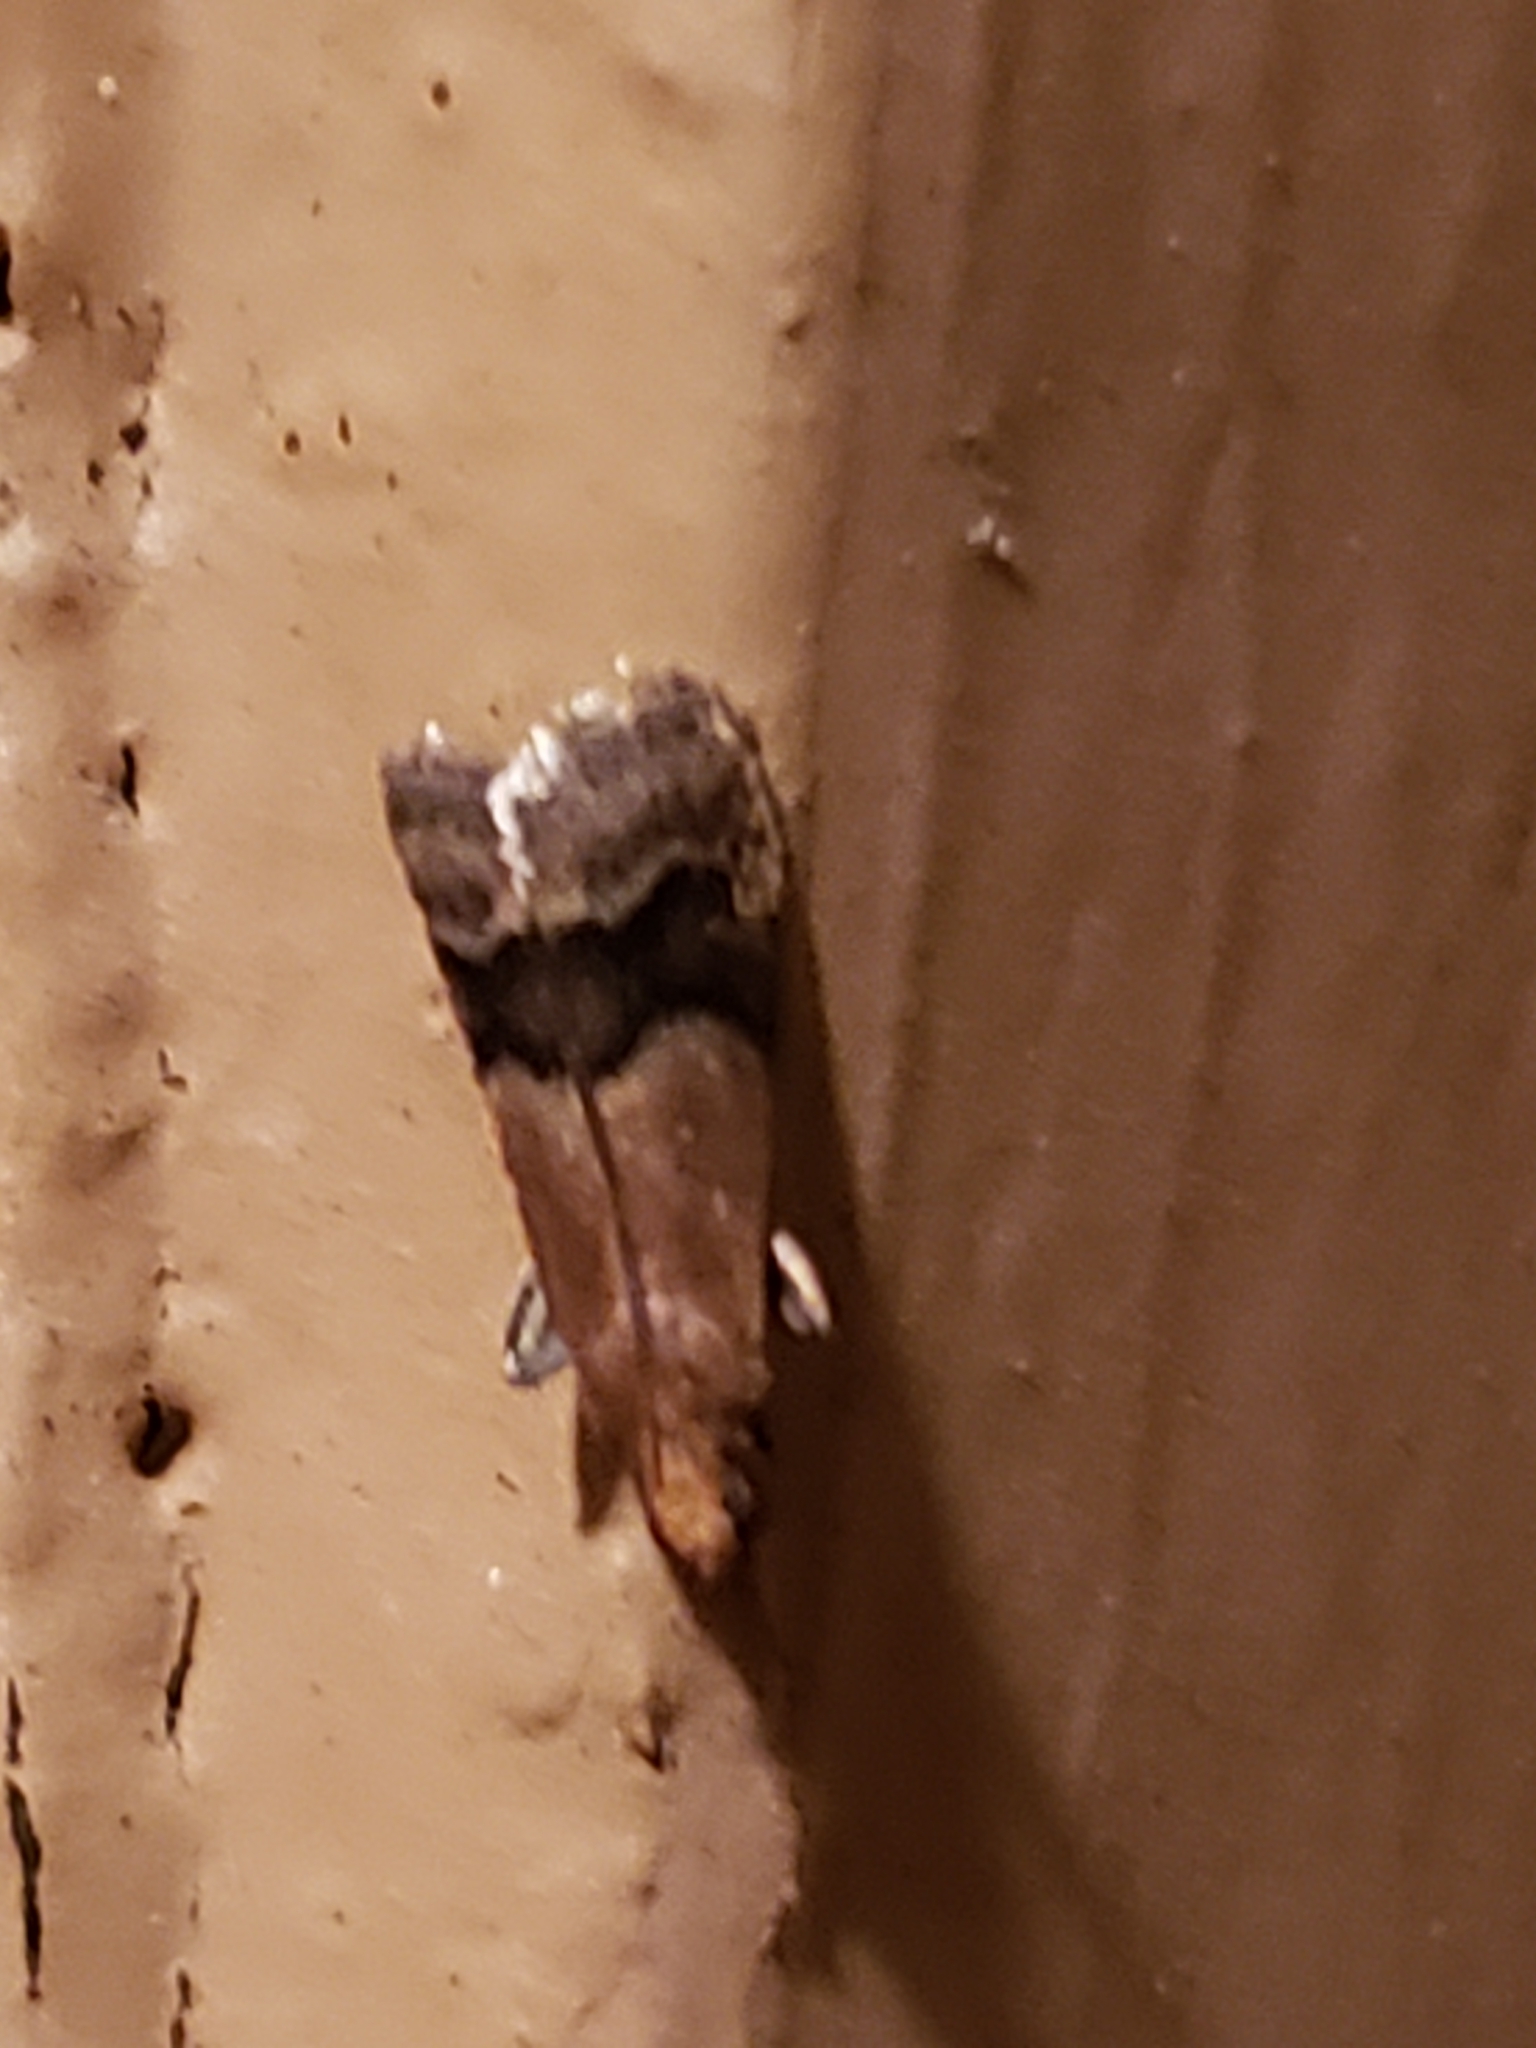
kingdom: Animalia
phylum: Arthropoda
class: Insecta
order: Lepidoptera
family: Pyralidae
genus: Eulogia
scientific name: Eulogia ochrifrontella
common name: Broad-banded eulogia moth
